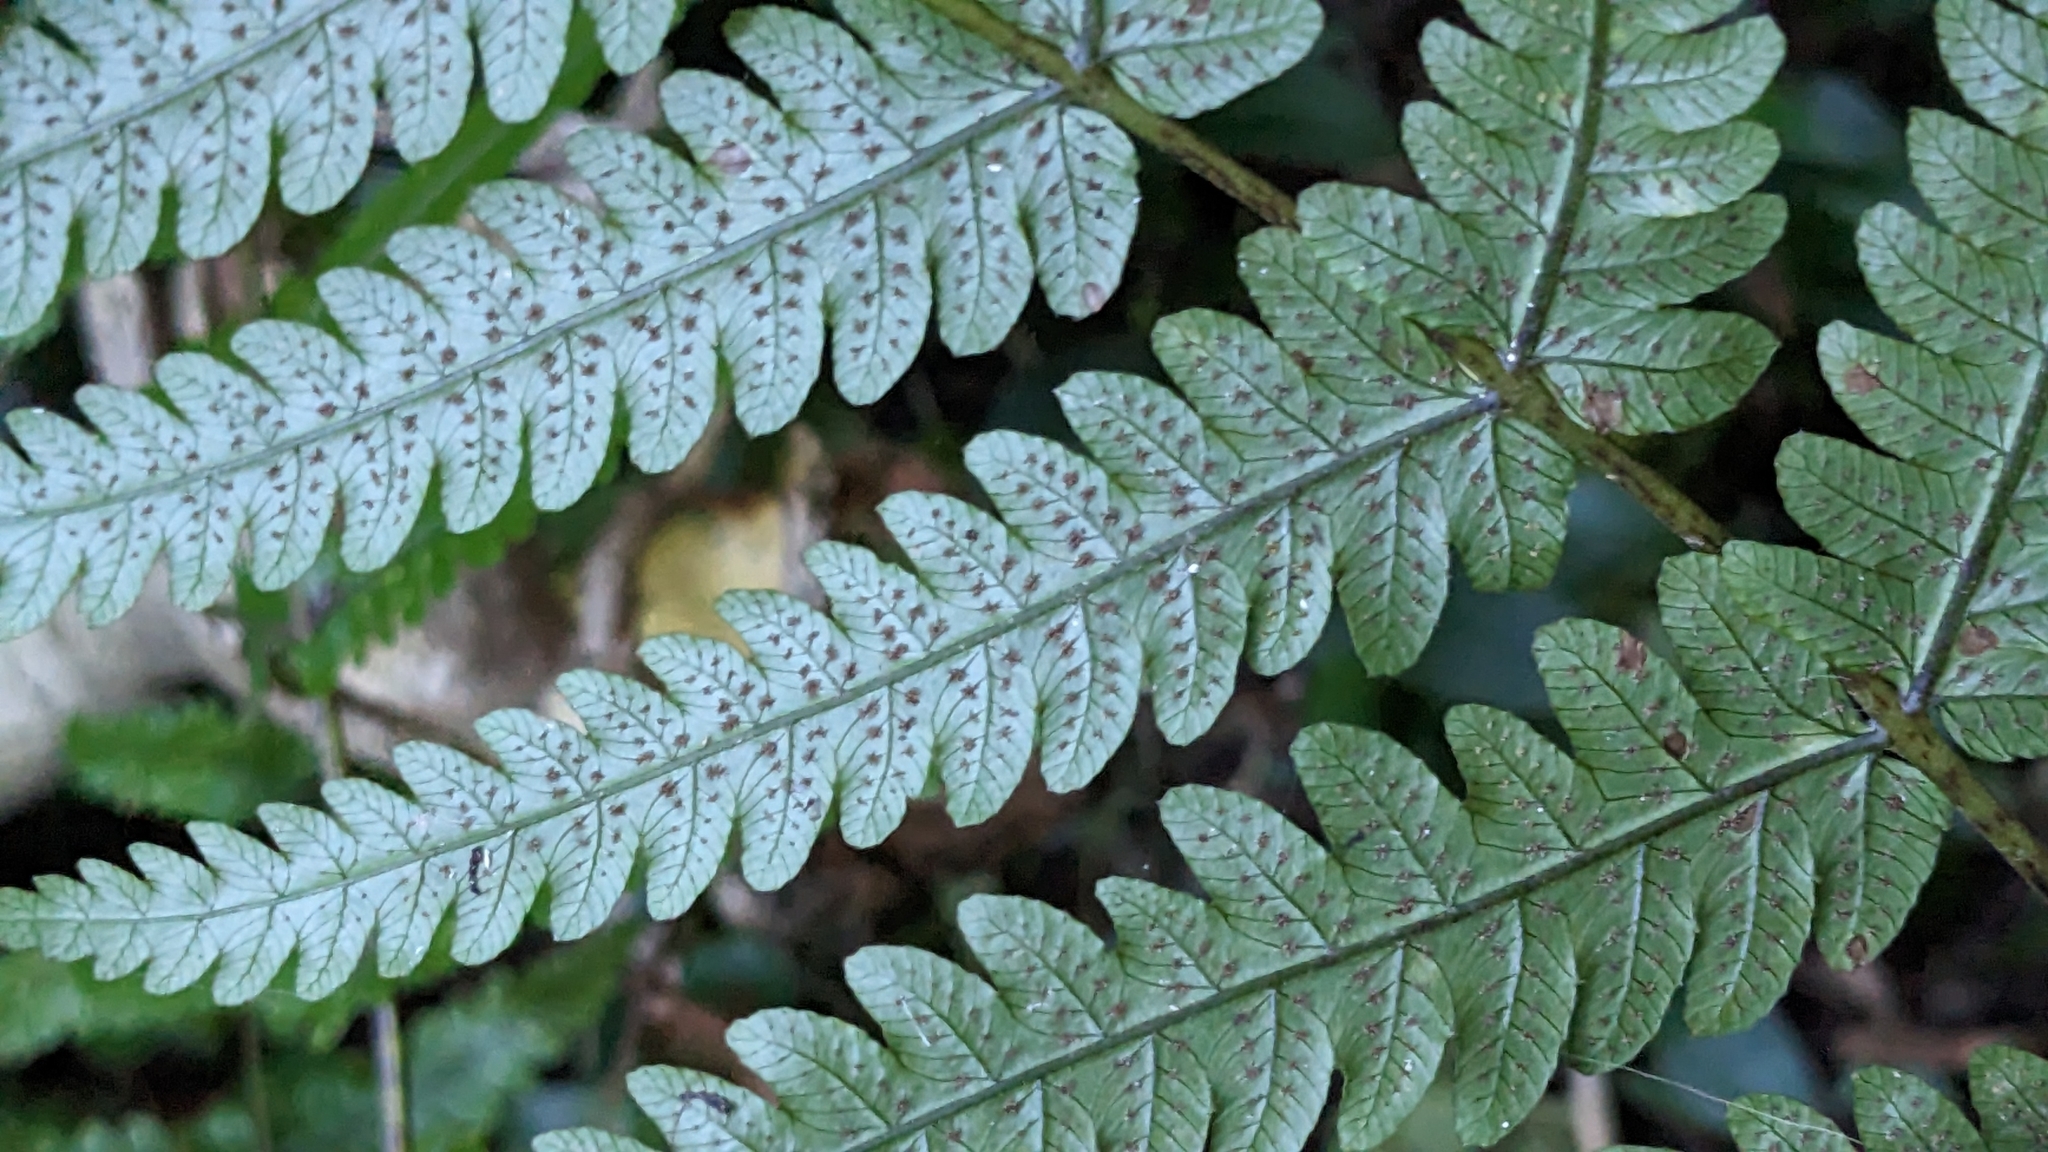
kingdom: Plantae
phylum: Tracheophyta
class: Polypodiopsida
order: Polypodiales
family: Thelypteridaceae
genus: Pakau
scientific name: Pakau pennigera
